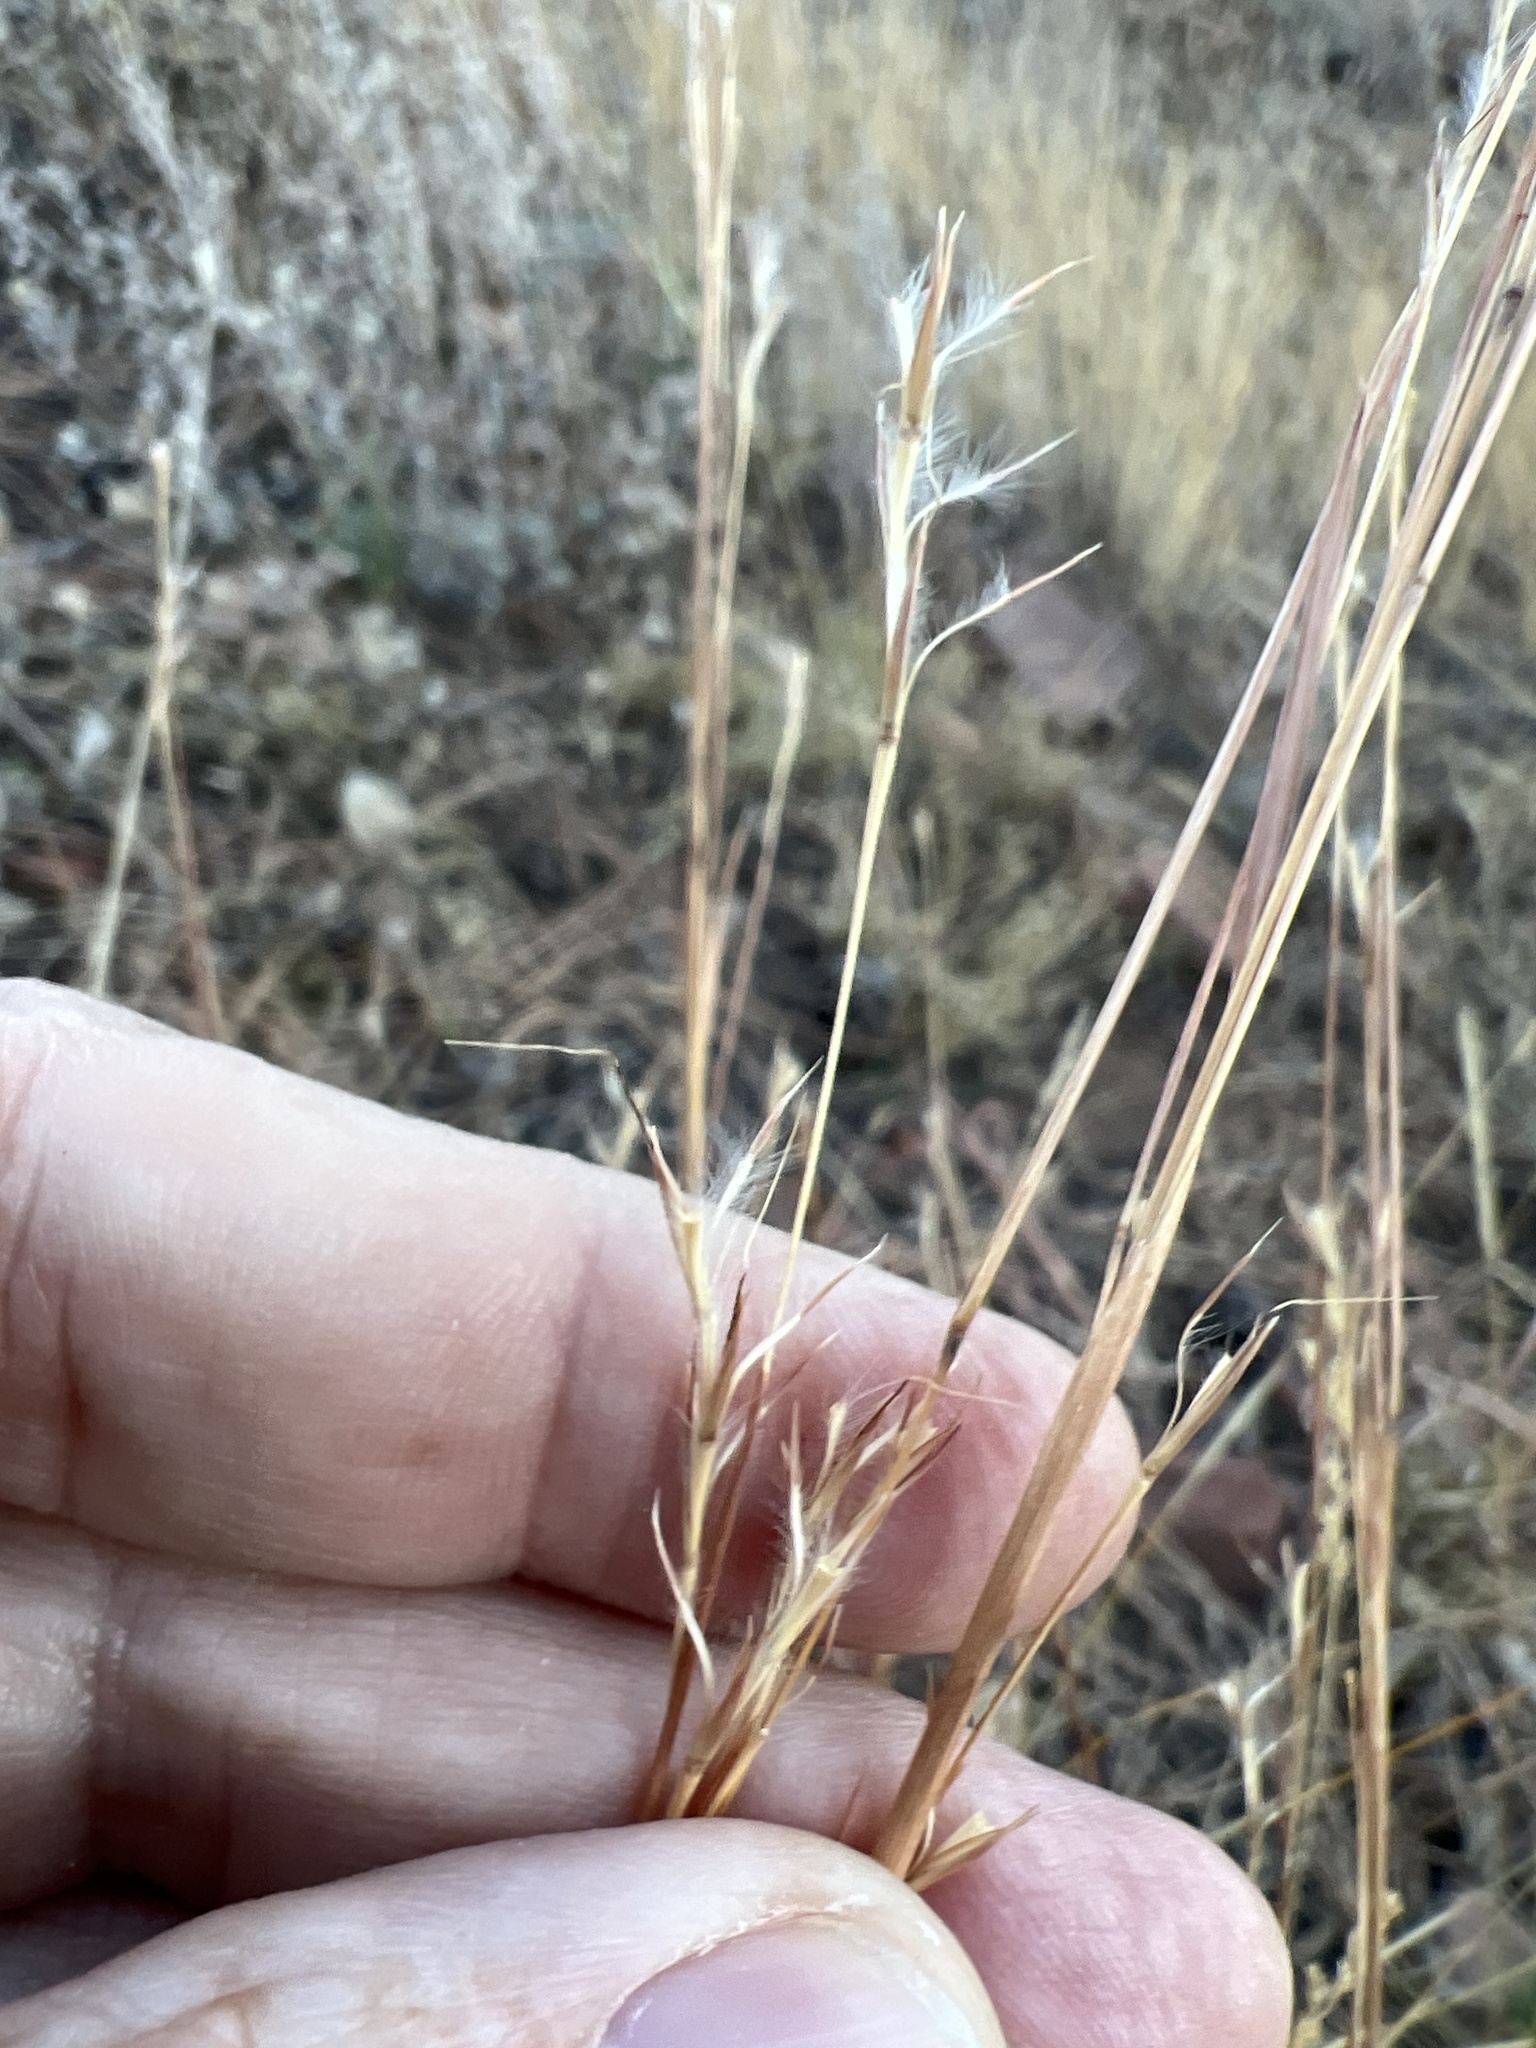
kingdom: Plantae
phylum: Tracheophyta
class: Liliopsida
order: Poales
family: Poaceae
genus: Schizachyrium
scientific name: Schizachyrium scoparium
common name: Little bluestem
